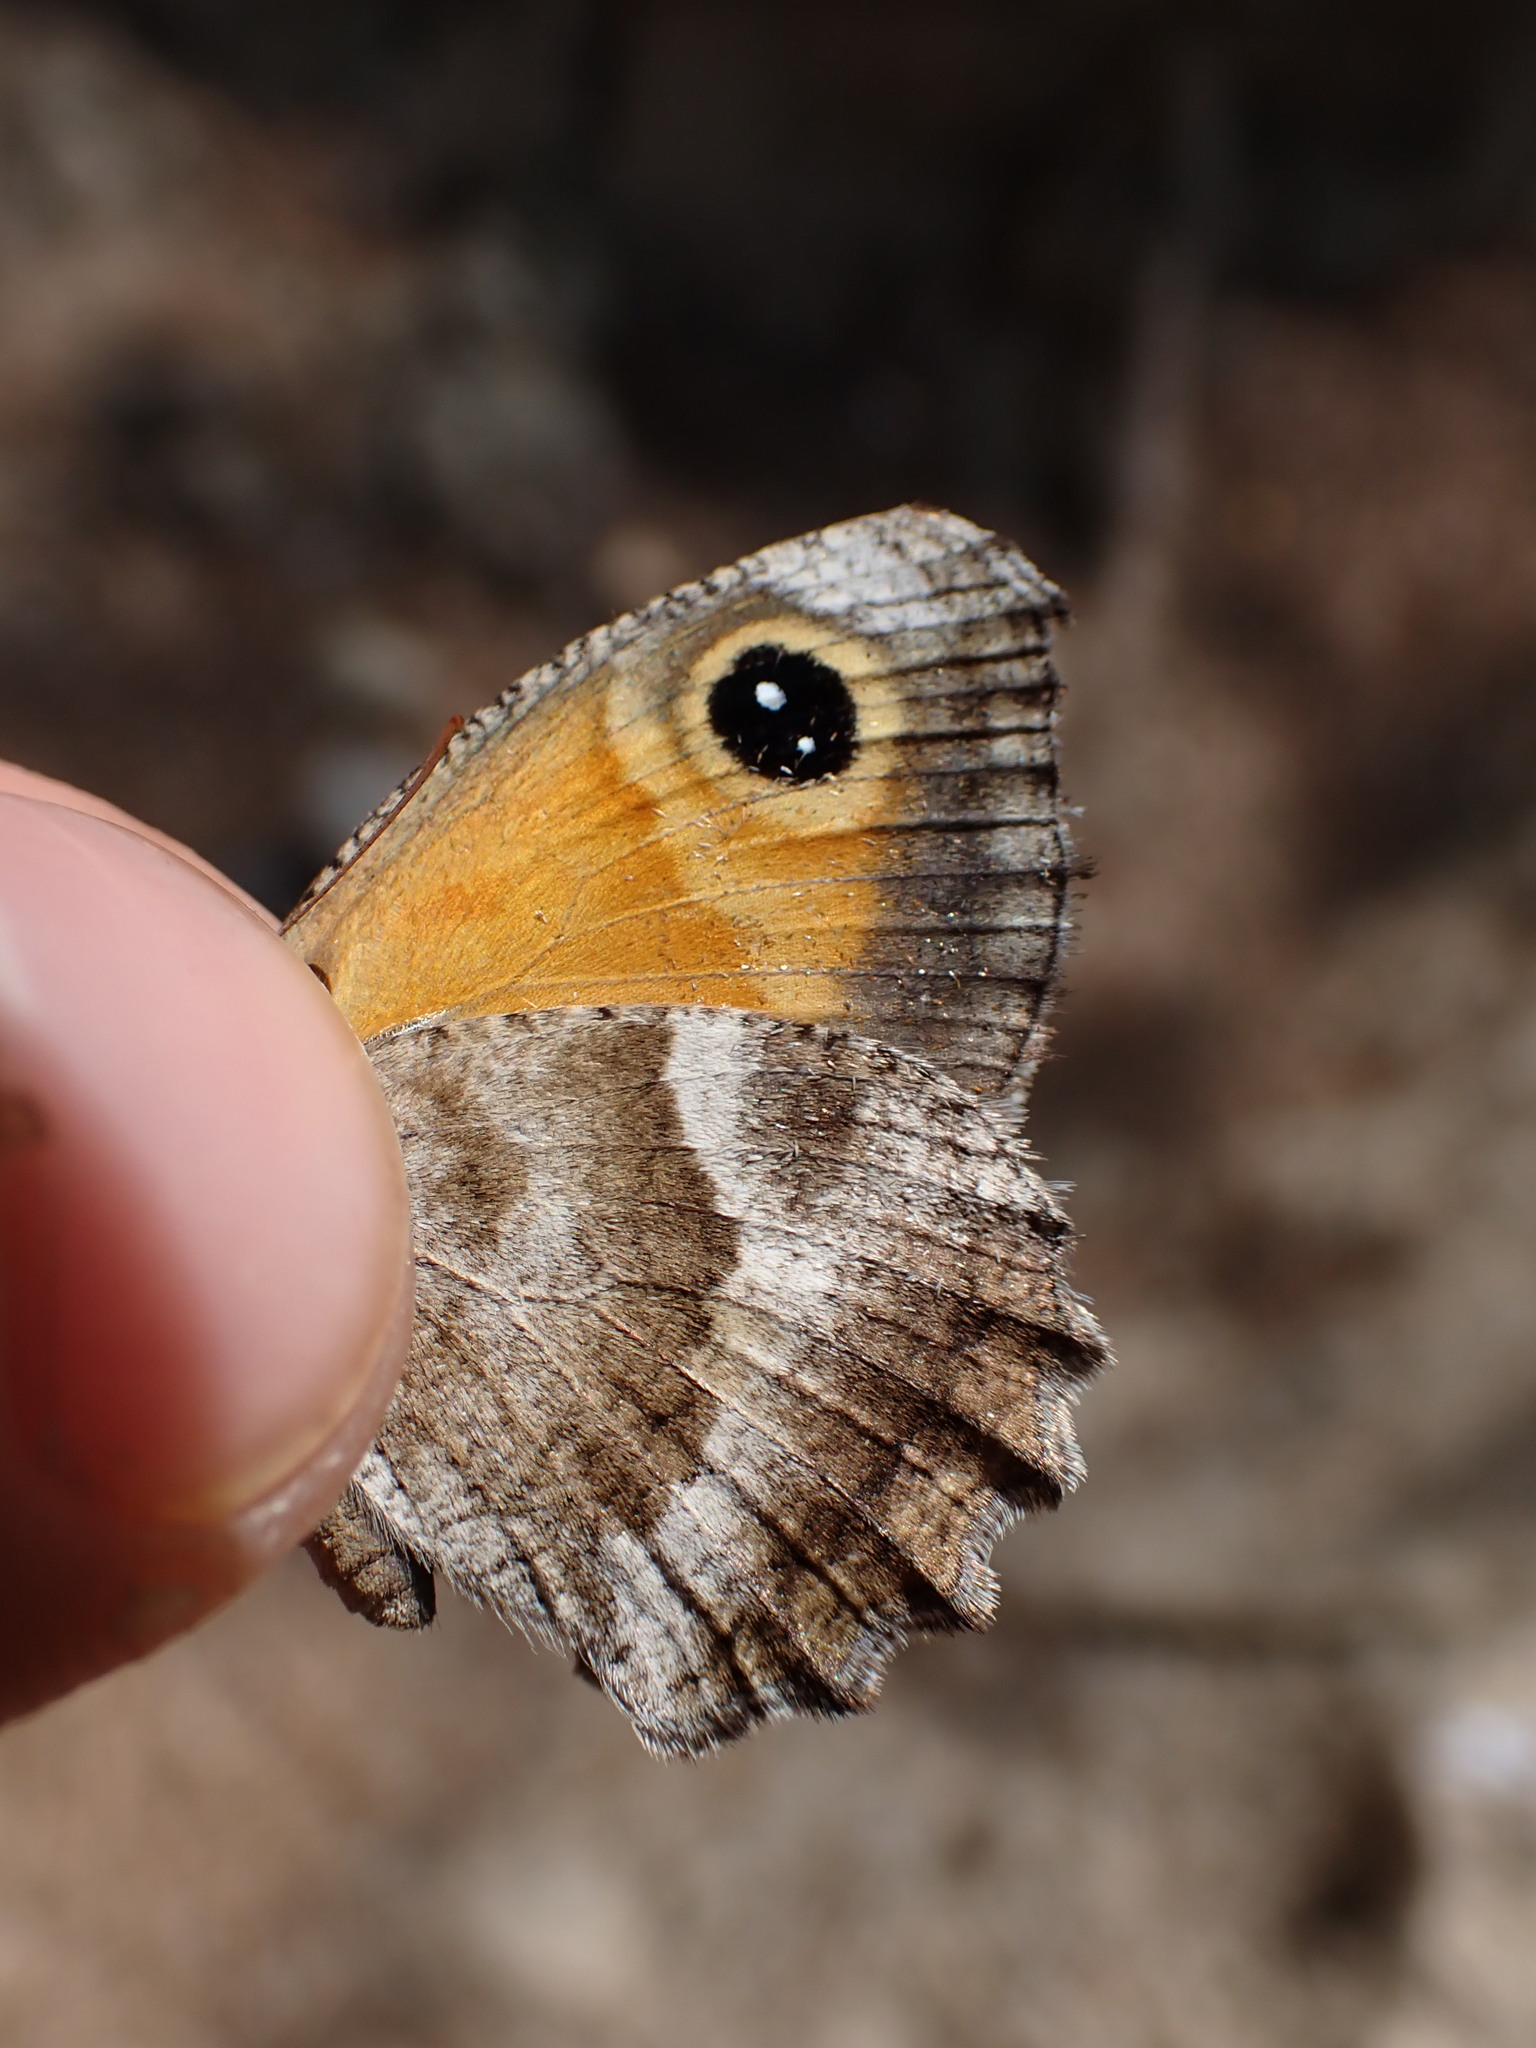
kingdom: Animalia
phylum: Arthropoda
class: Insecta
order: Lepidoptera
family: Nymphalidae
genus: Pyronia
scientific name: Pyronia cecilia
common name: Southern gatekeeper
